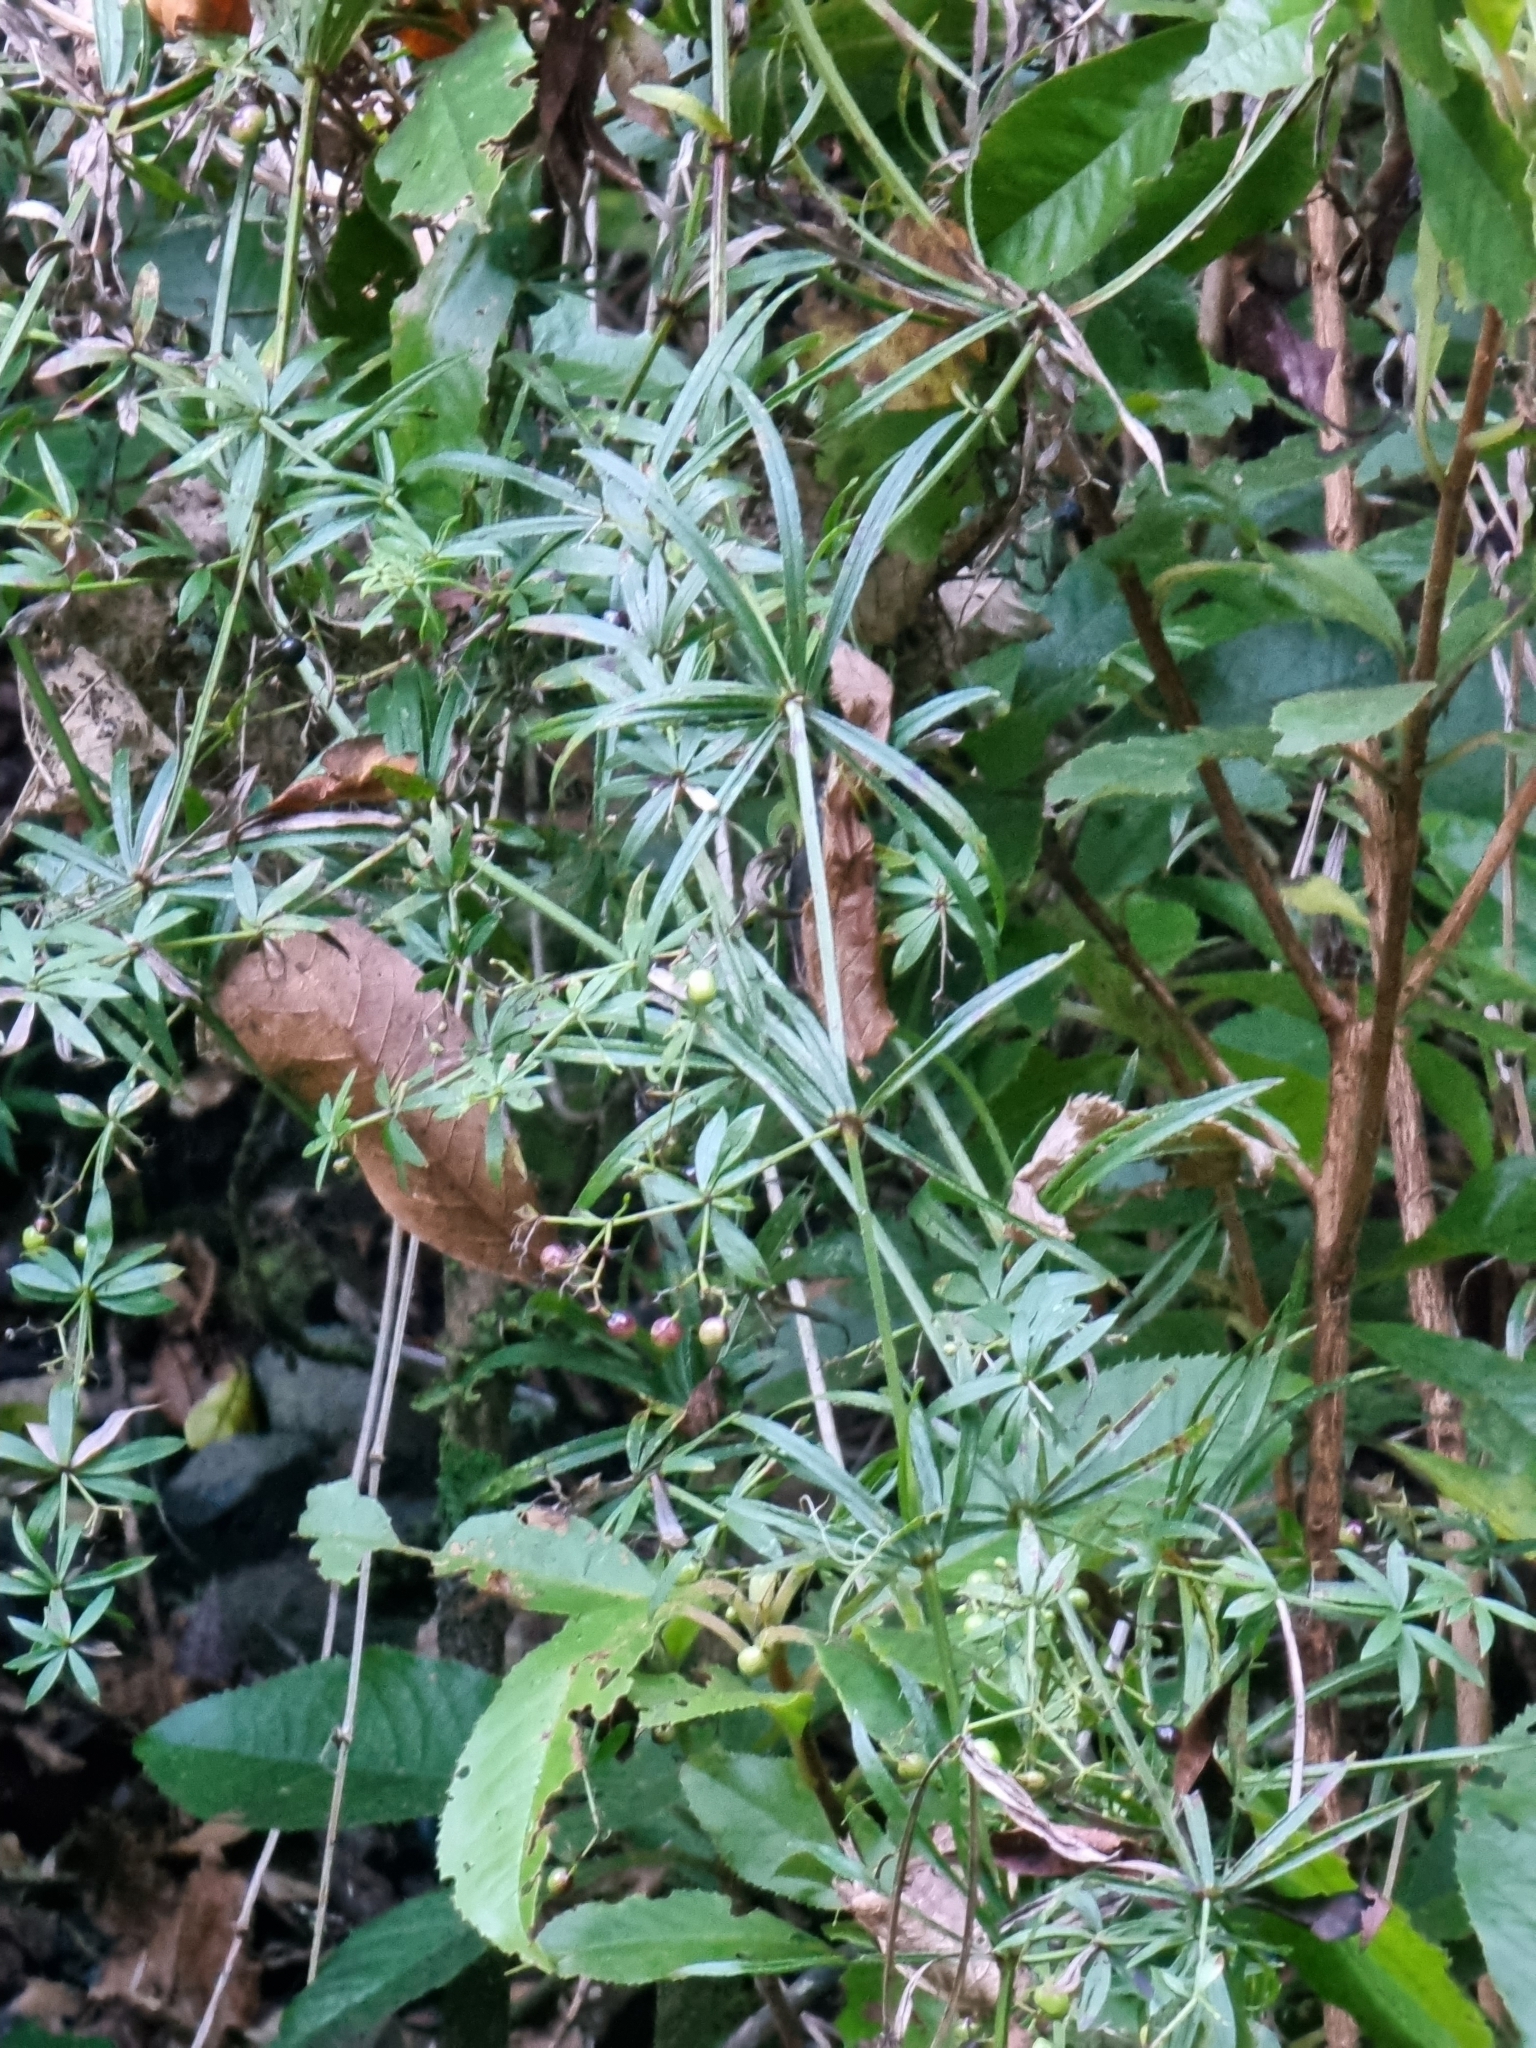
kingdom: Plantae
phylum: Tracheophyta
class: Magnoliopsida
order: Gentianales
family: Rubiaceae
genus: Rubia
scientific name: Rubia occidens
